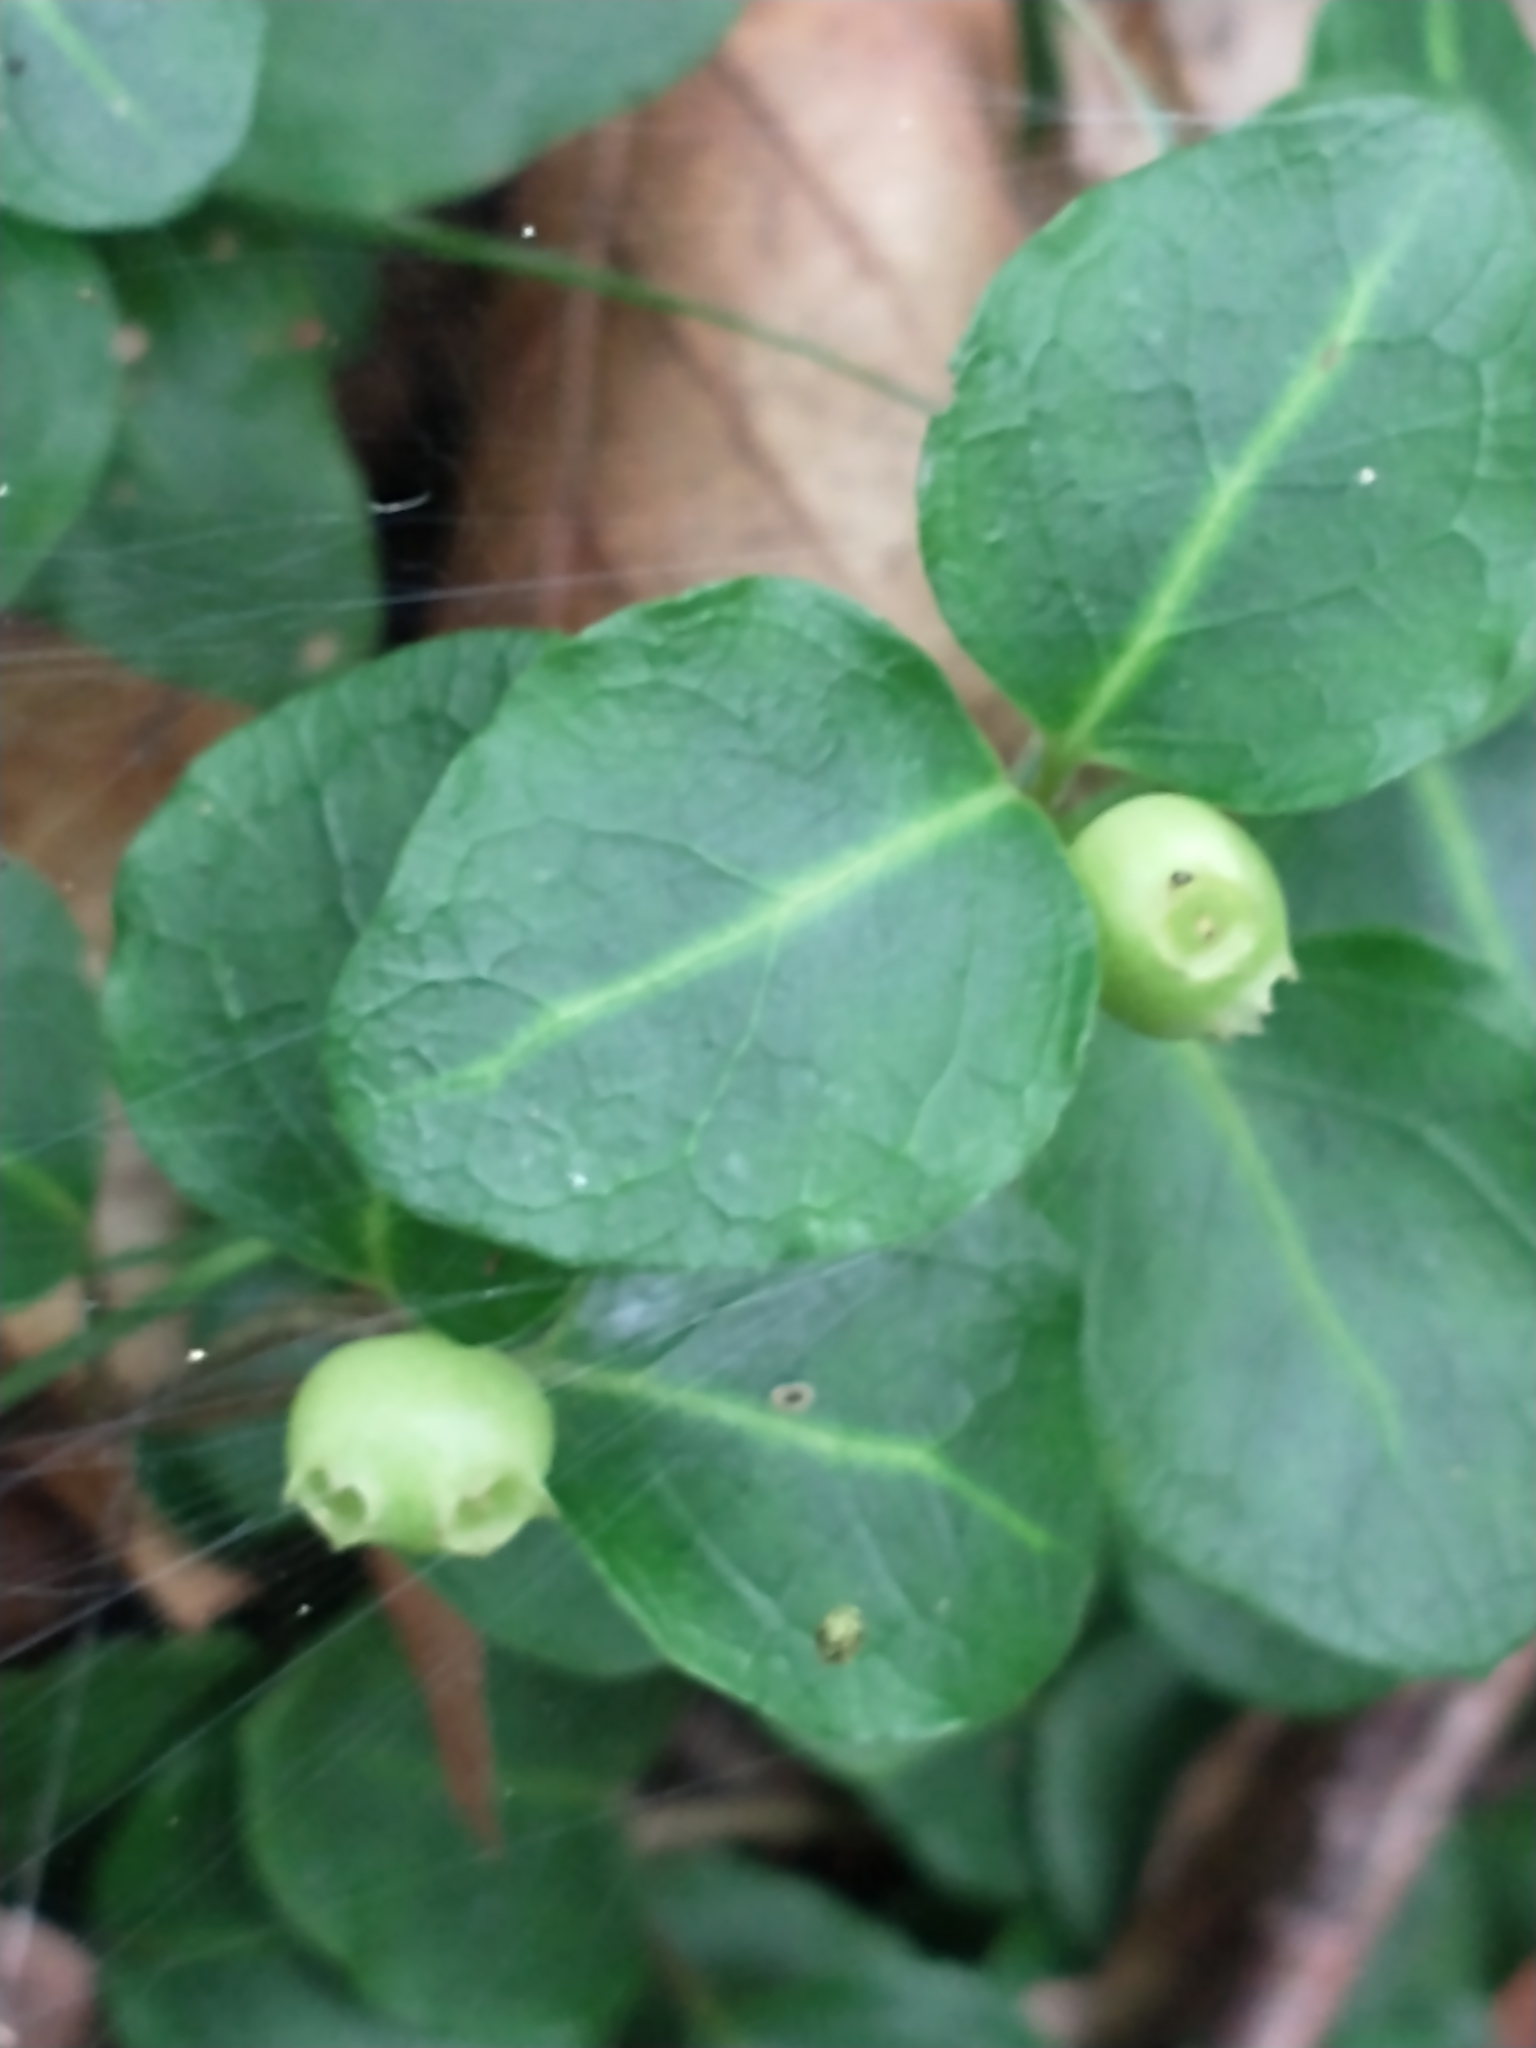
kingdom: Plantae
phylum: Tracheophyta
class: Magnoliopsida
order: Gentianales
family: Rubiaceae
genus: Mitchella
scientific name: Mitchella repens
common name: Partridge-berry
